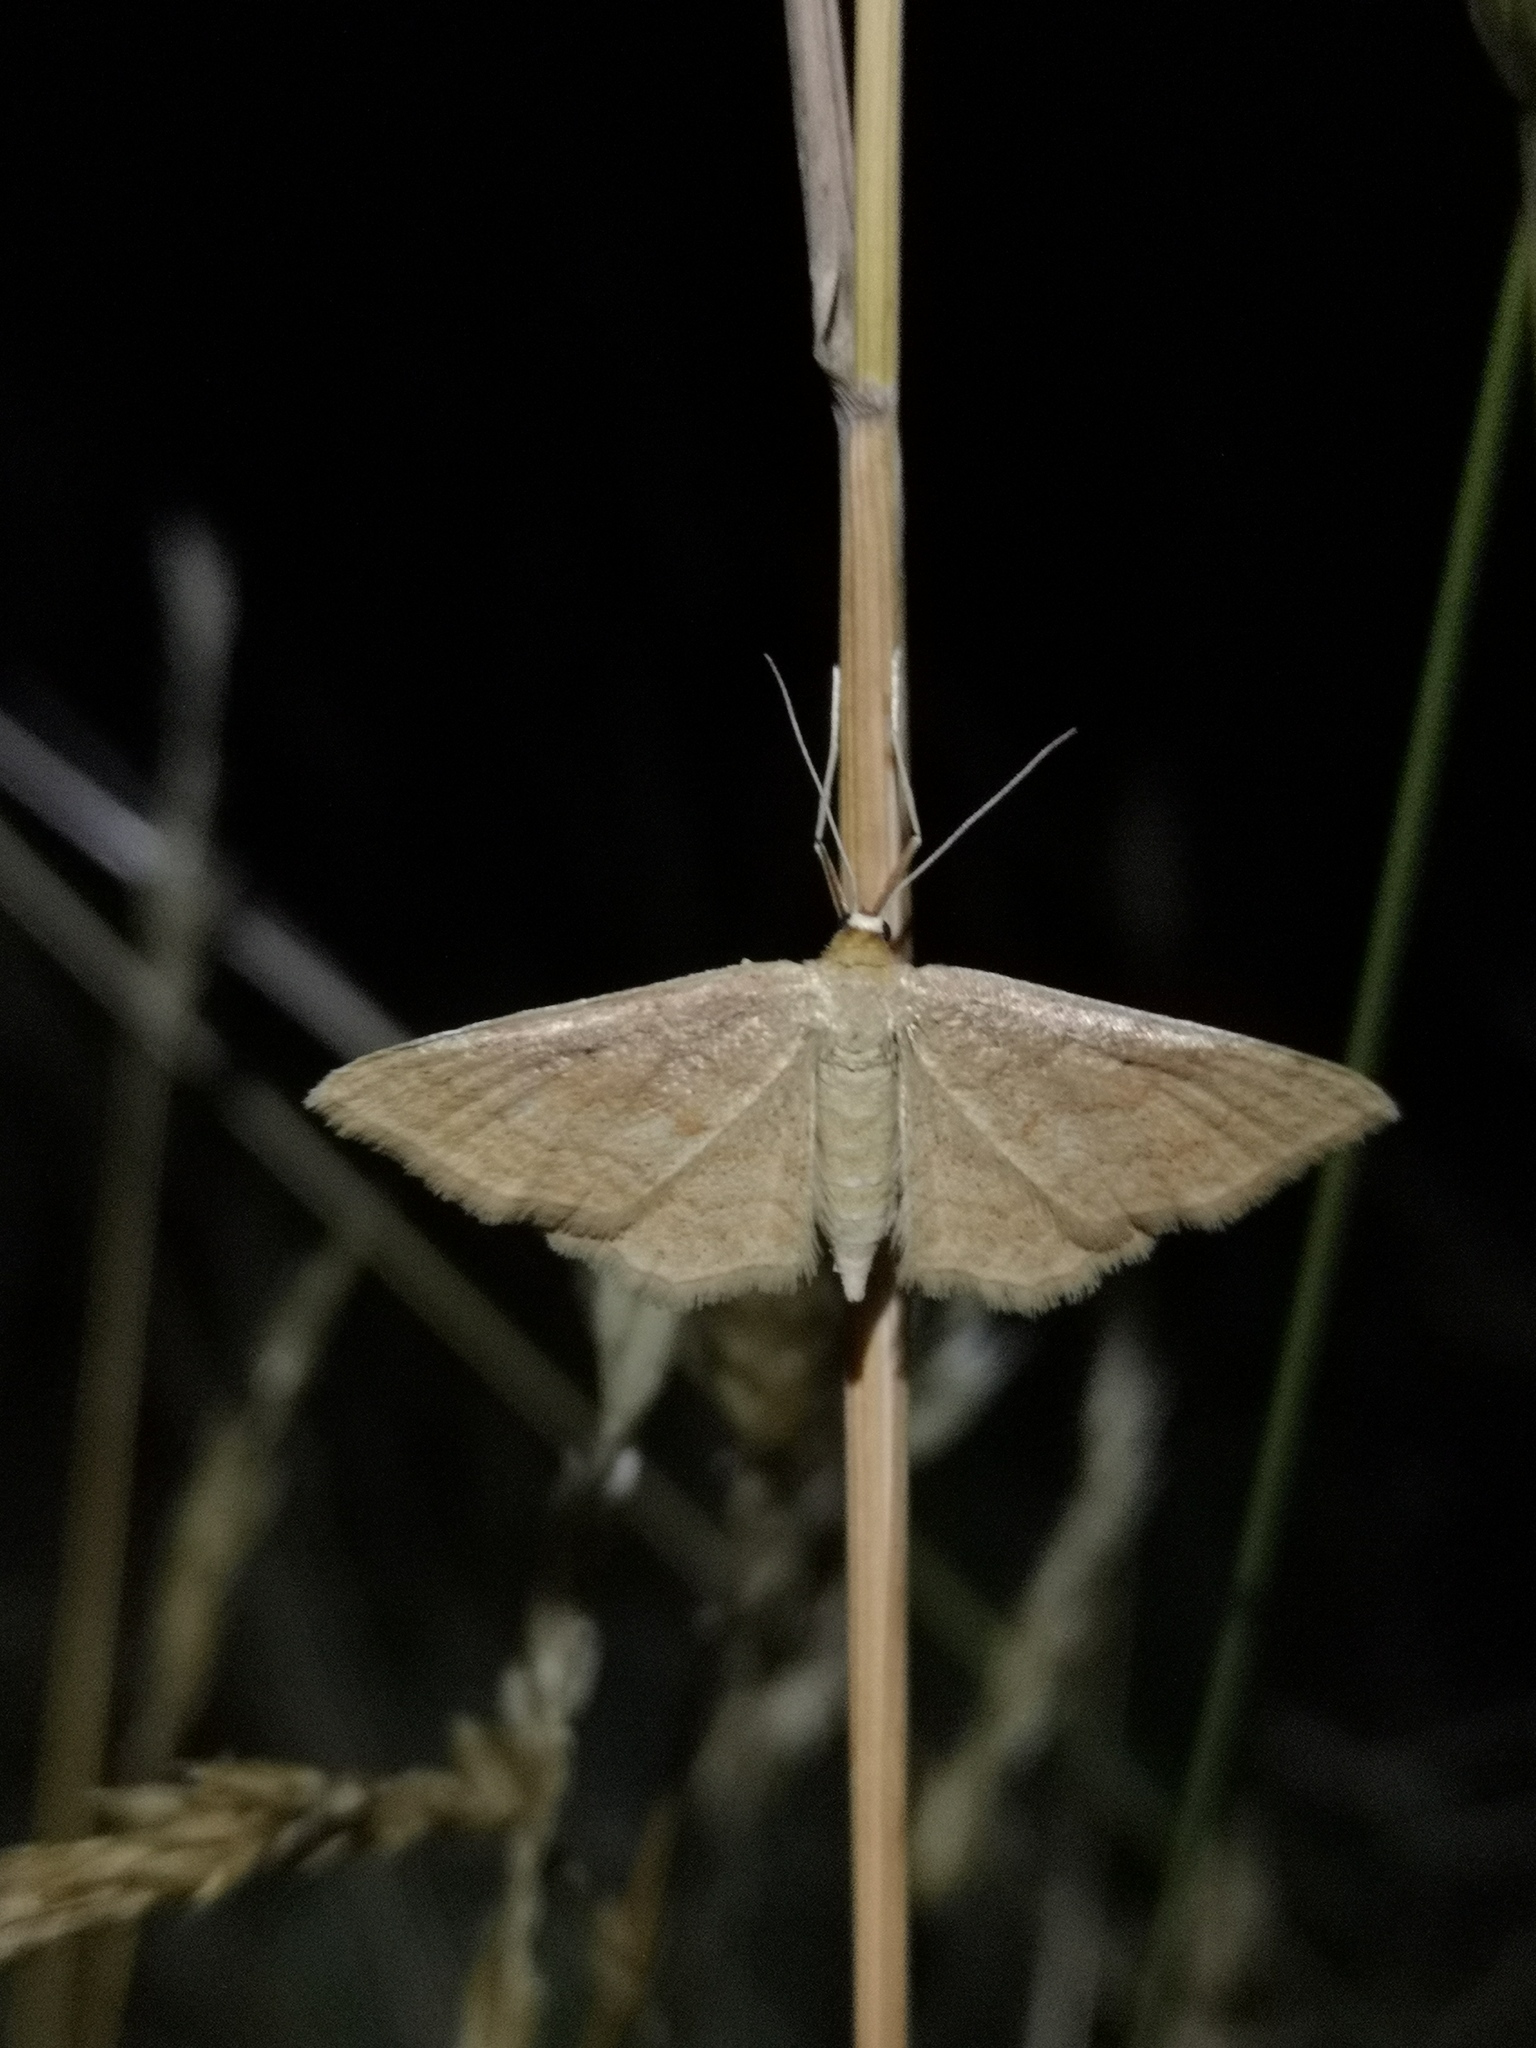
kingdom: Animalia
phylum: Arthropoda
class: Insecta
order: Lepidoptera
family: Geometridae
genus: Idaea
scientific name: Idaea rufaria
